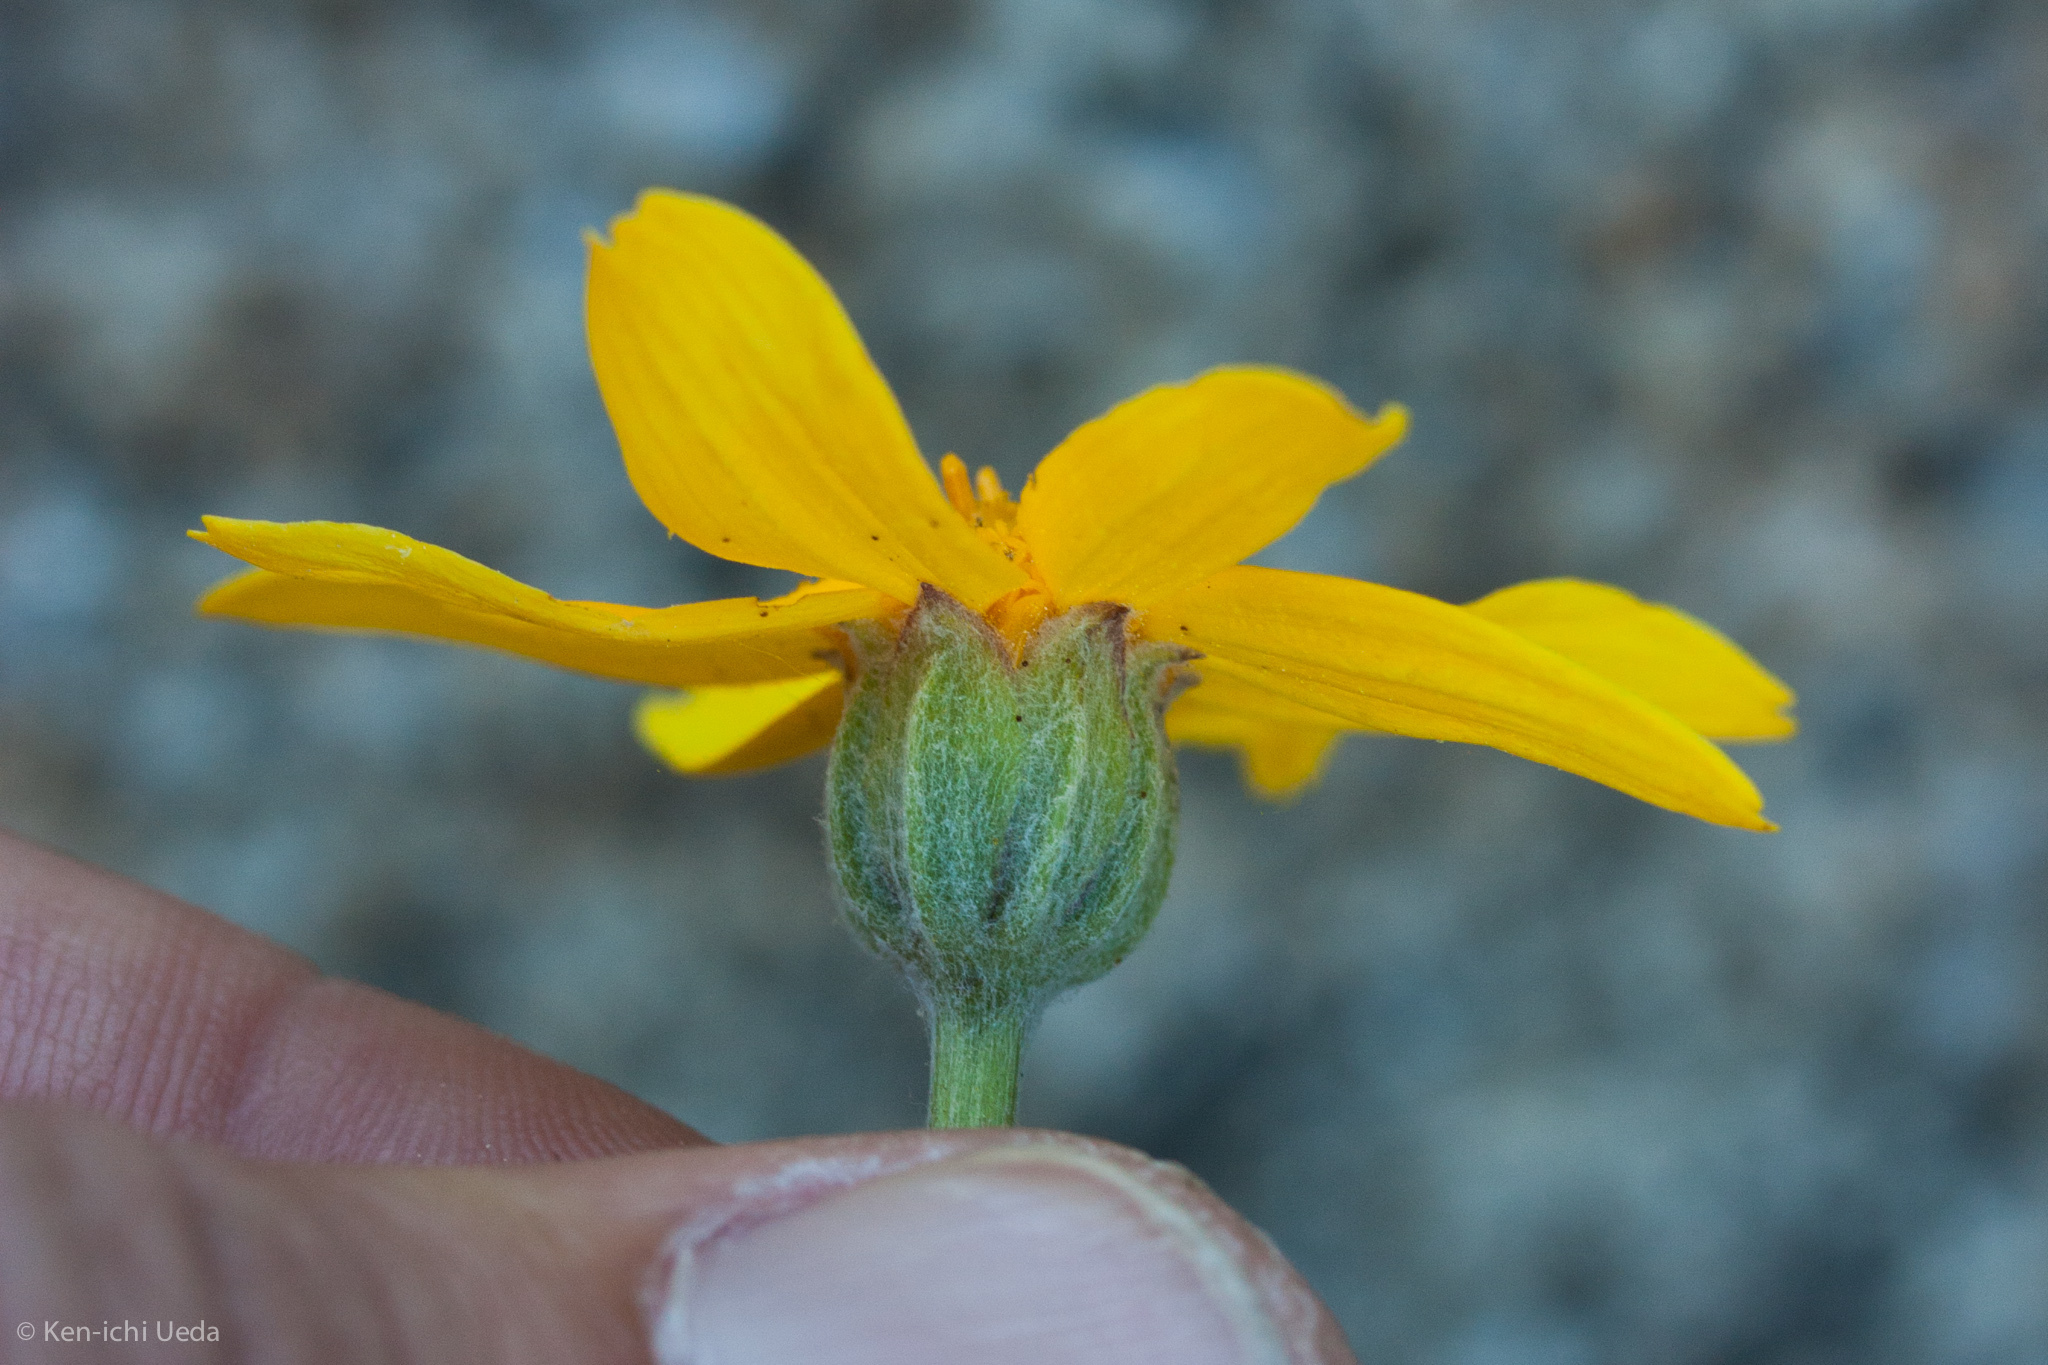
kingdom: Plantae
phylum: Tracheophyta
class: Magnoliopsida
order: Asterales
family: Asteraceae
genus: Eriophyllum
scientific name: Eriophyllum lanatum
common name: Common woolly-sunflower
